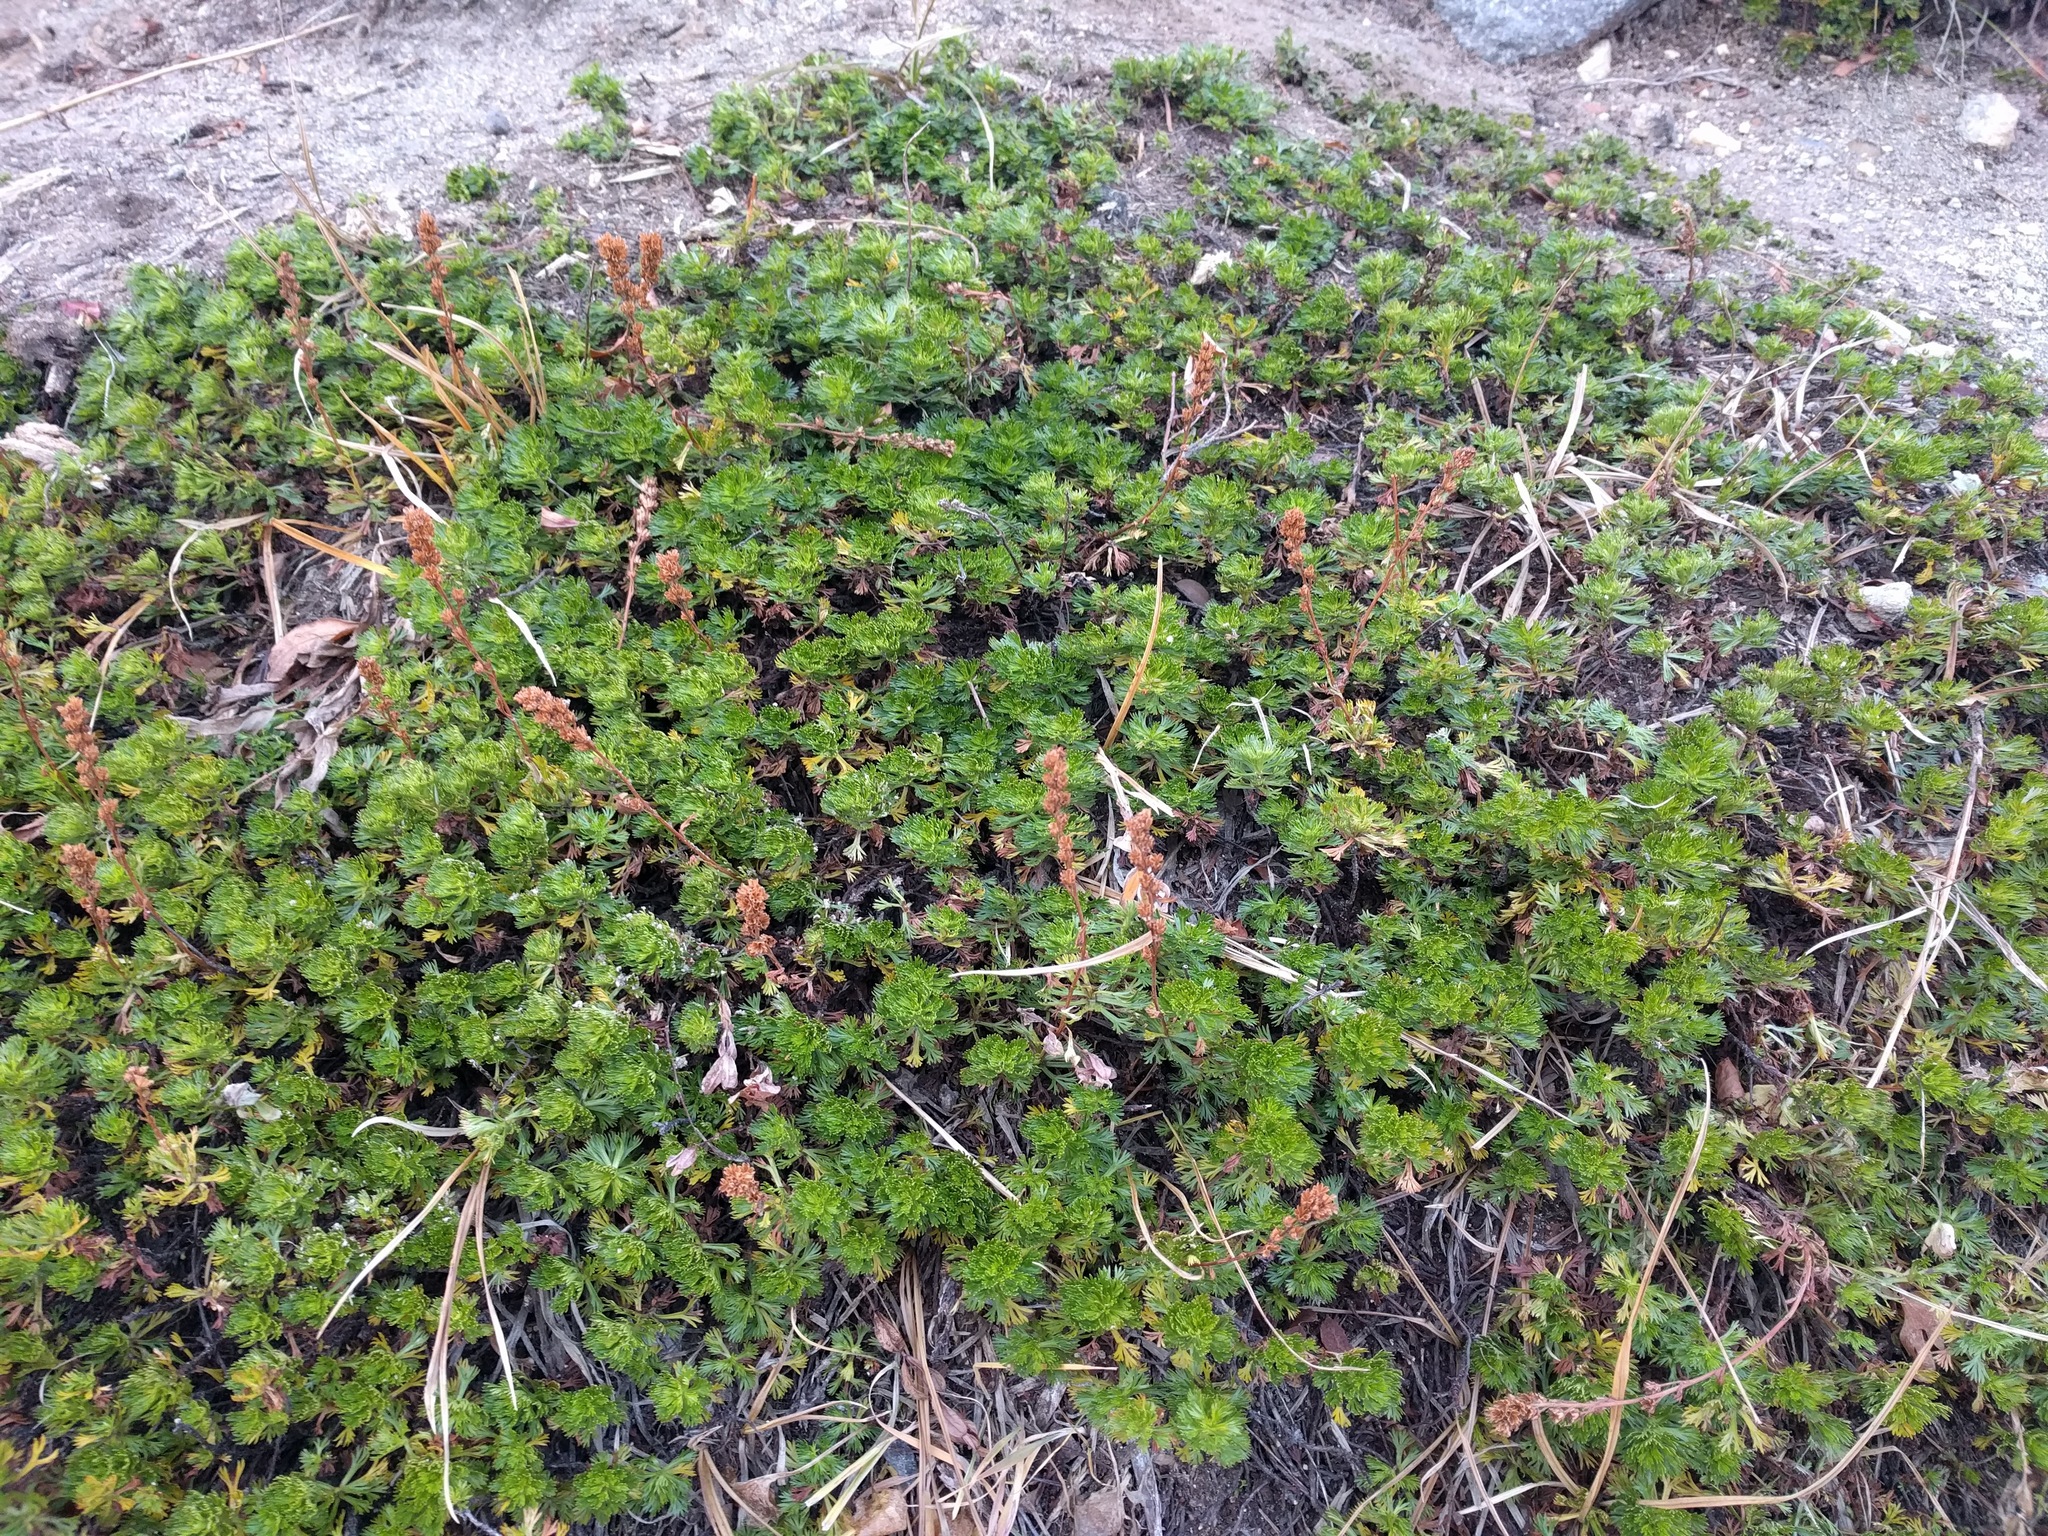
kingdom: Plantae
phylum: Tracheophyta
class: Magnoliopsida
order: Rosales
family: Rosaceae
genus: Luetkea
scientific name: Luetkea pectinata
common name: Partridgefoot
